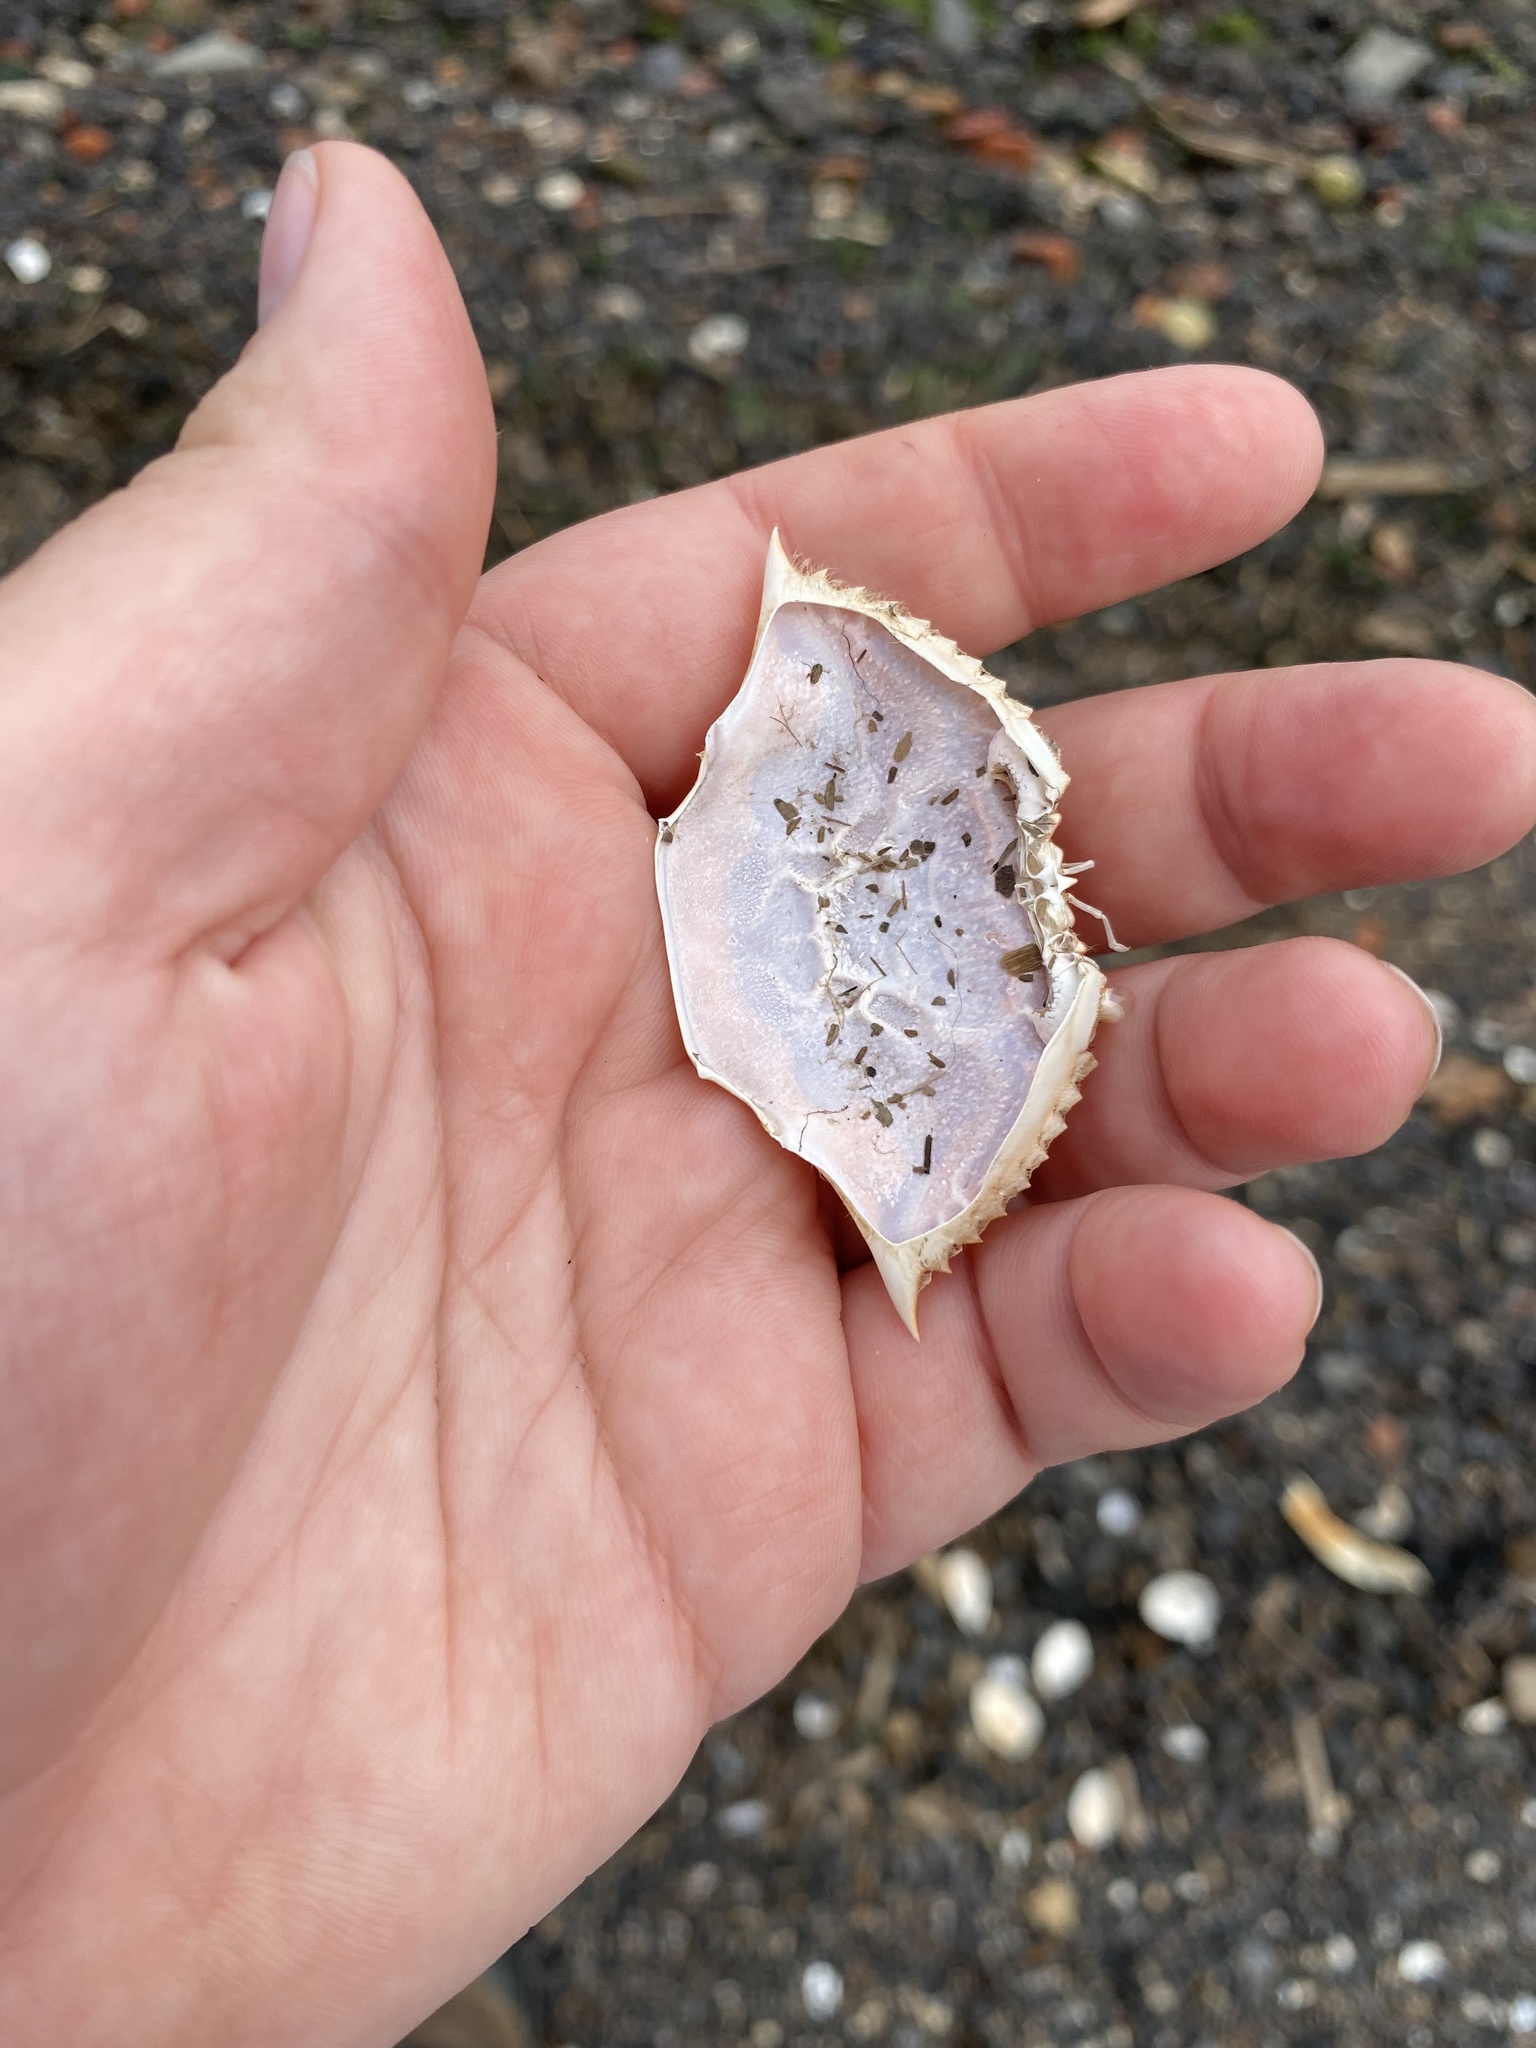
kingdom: Animalia
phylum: Arthropoda
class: Malacostraca
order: Decapoda
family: Portunidae
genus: Callinectes
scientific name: Callinectes sapidus
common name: Blue crab
